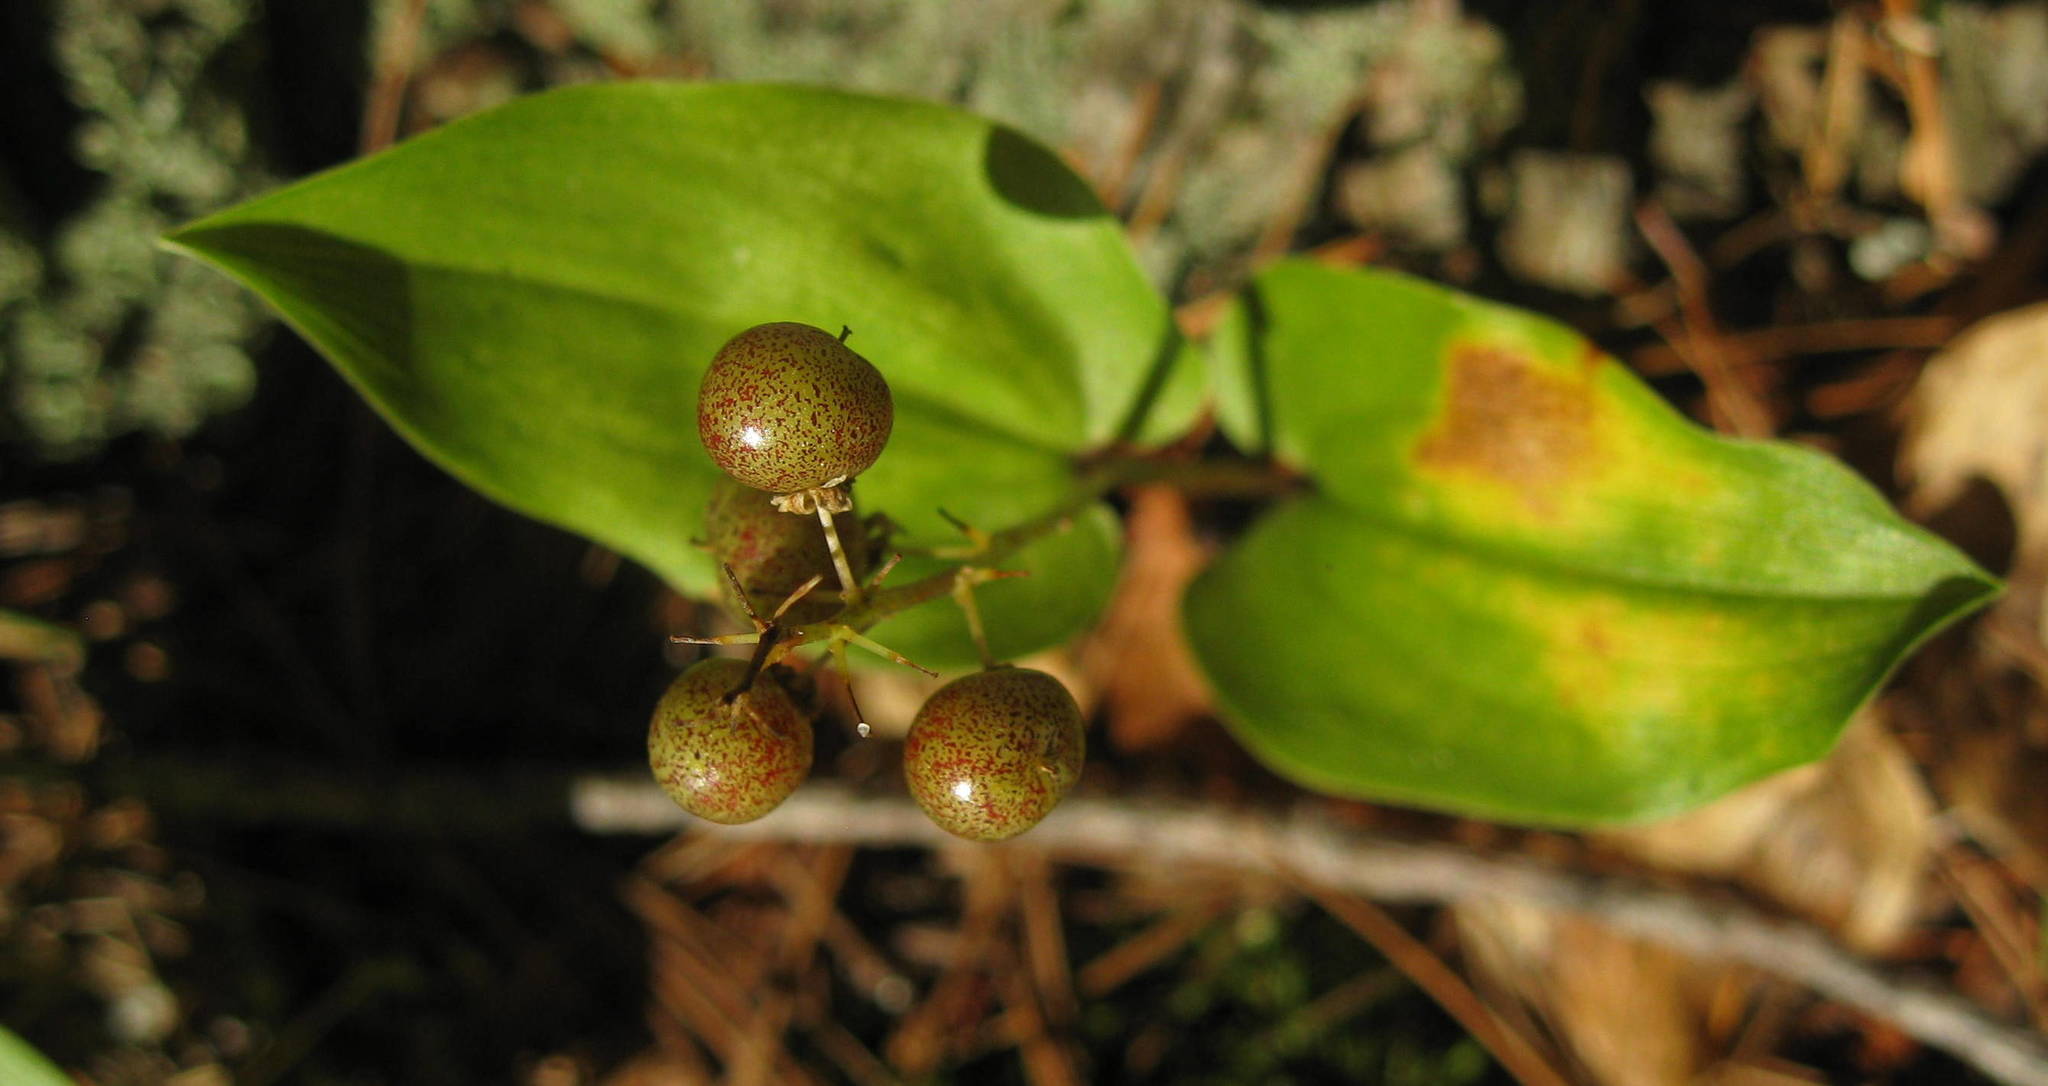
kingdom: Plantae
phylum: Tracheophyta
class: Liliopsida
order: Asparagales
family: Asparagaceae
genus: Maianthemum
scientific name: Maianthemum canadense
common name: False lily-of-the-valley
